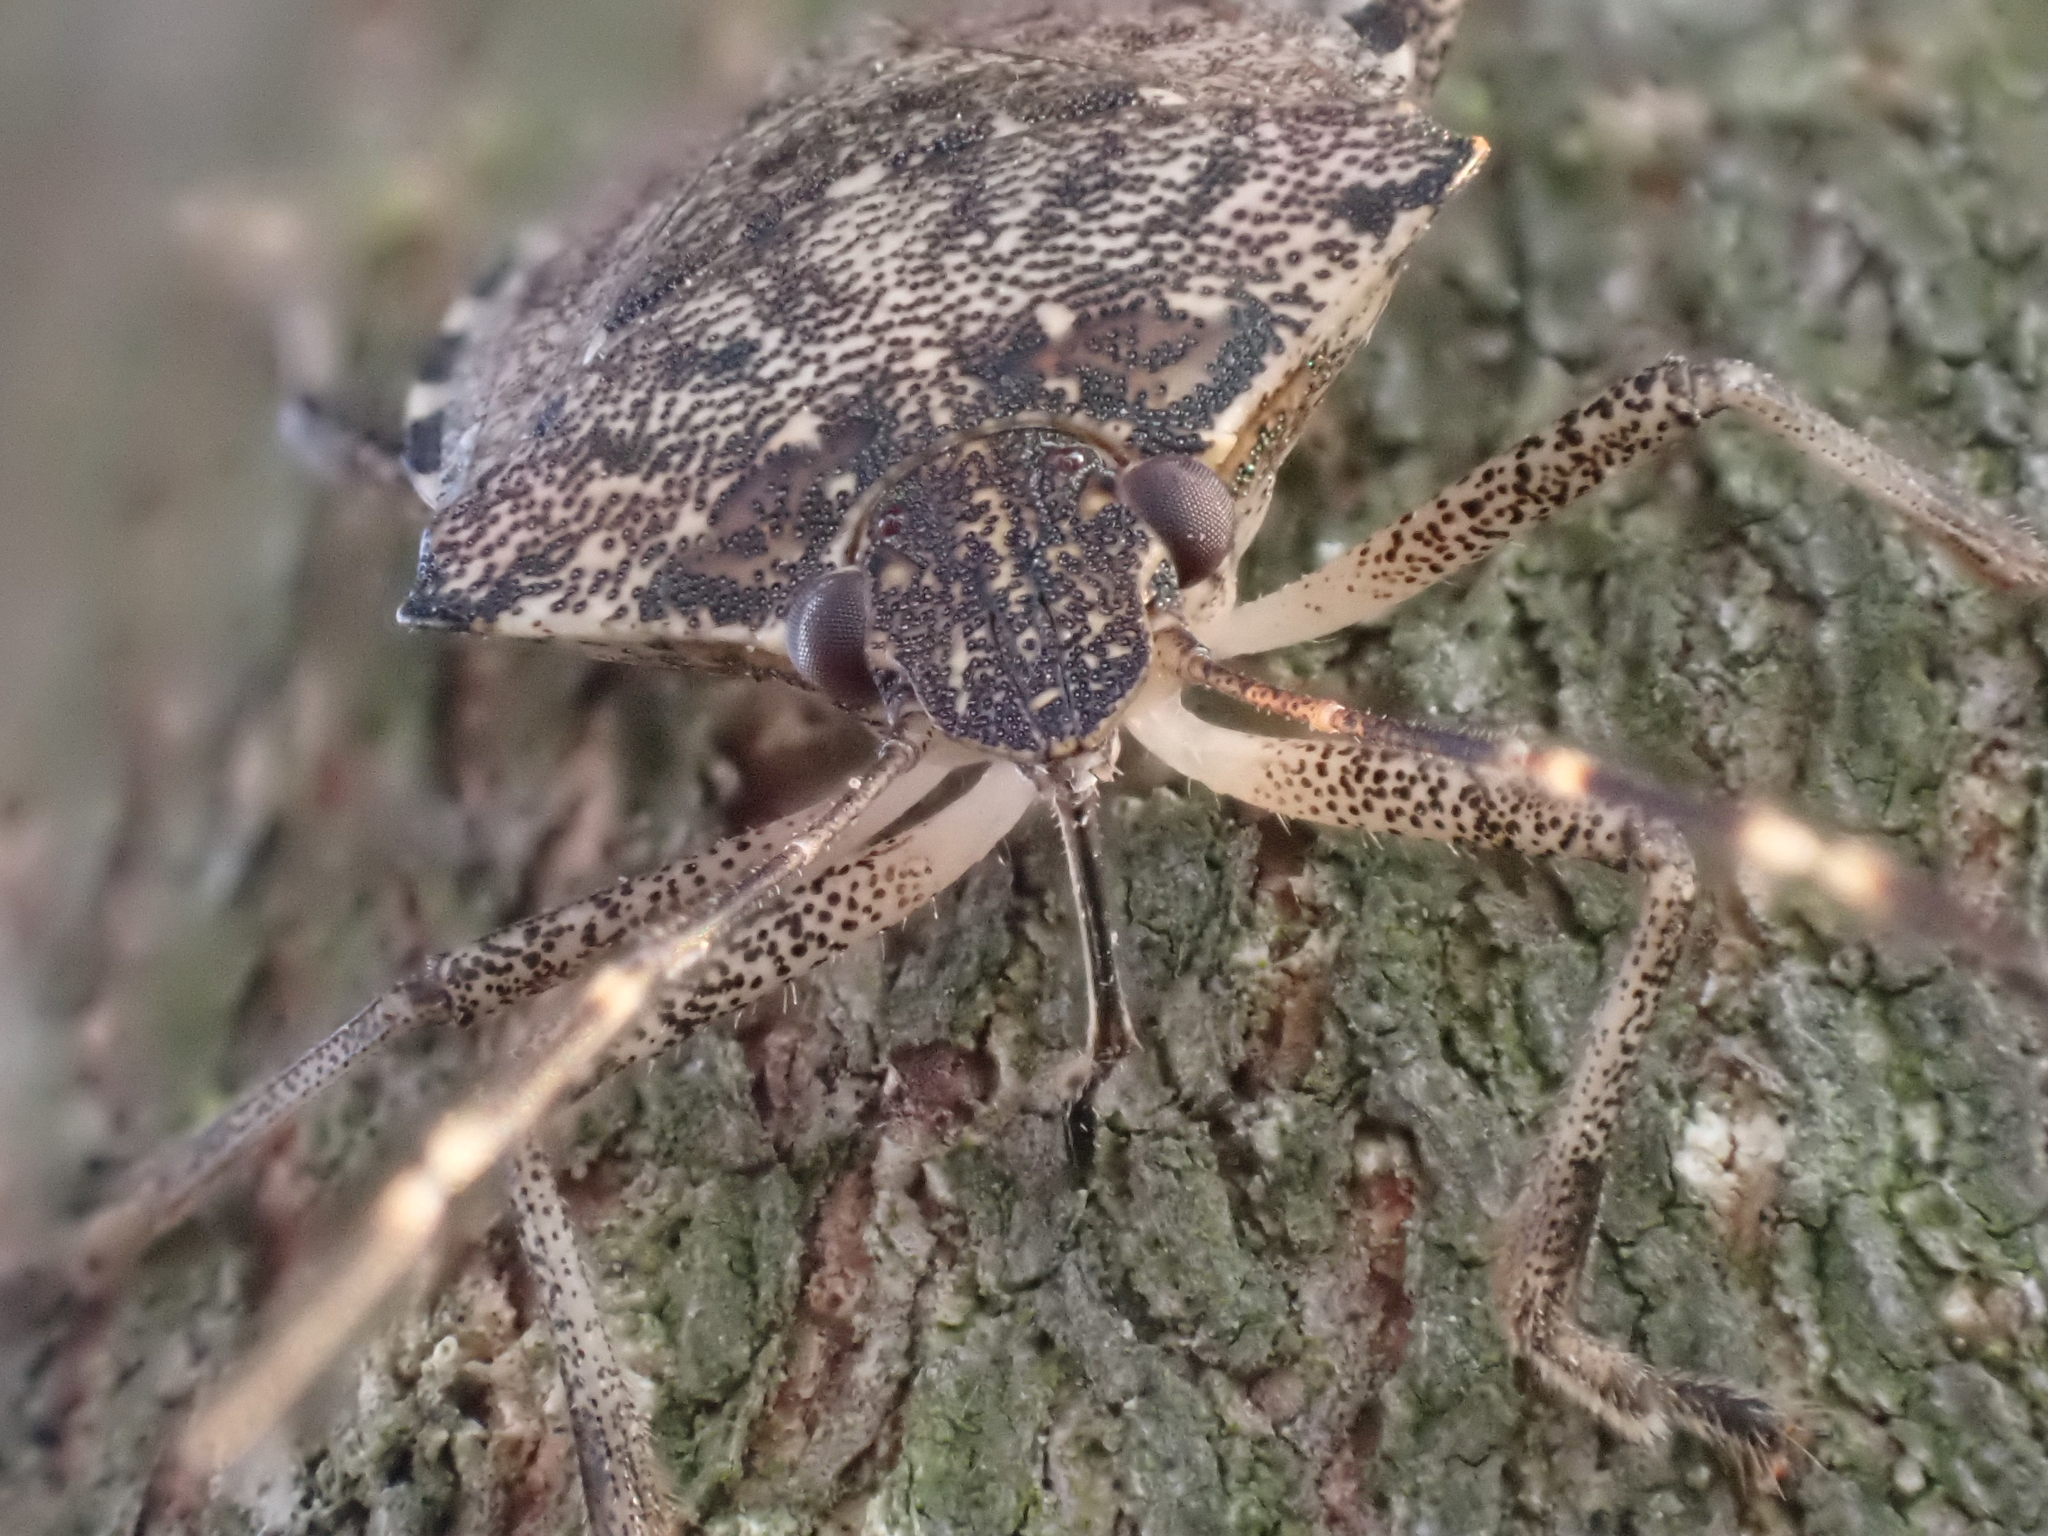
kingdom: Animalia
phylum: Arthropoda
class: Insecta
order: Hemiptera
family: Pentatomidae
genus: Halyomorpha
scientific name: Halyomorpha halys
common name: Brown marmorated stink bug
